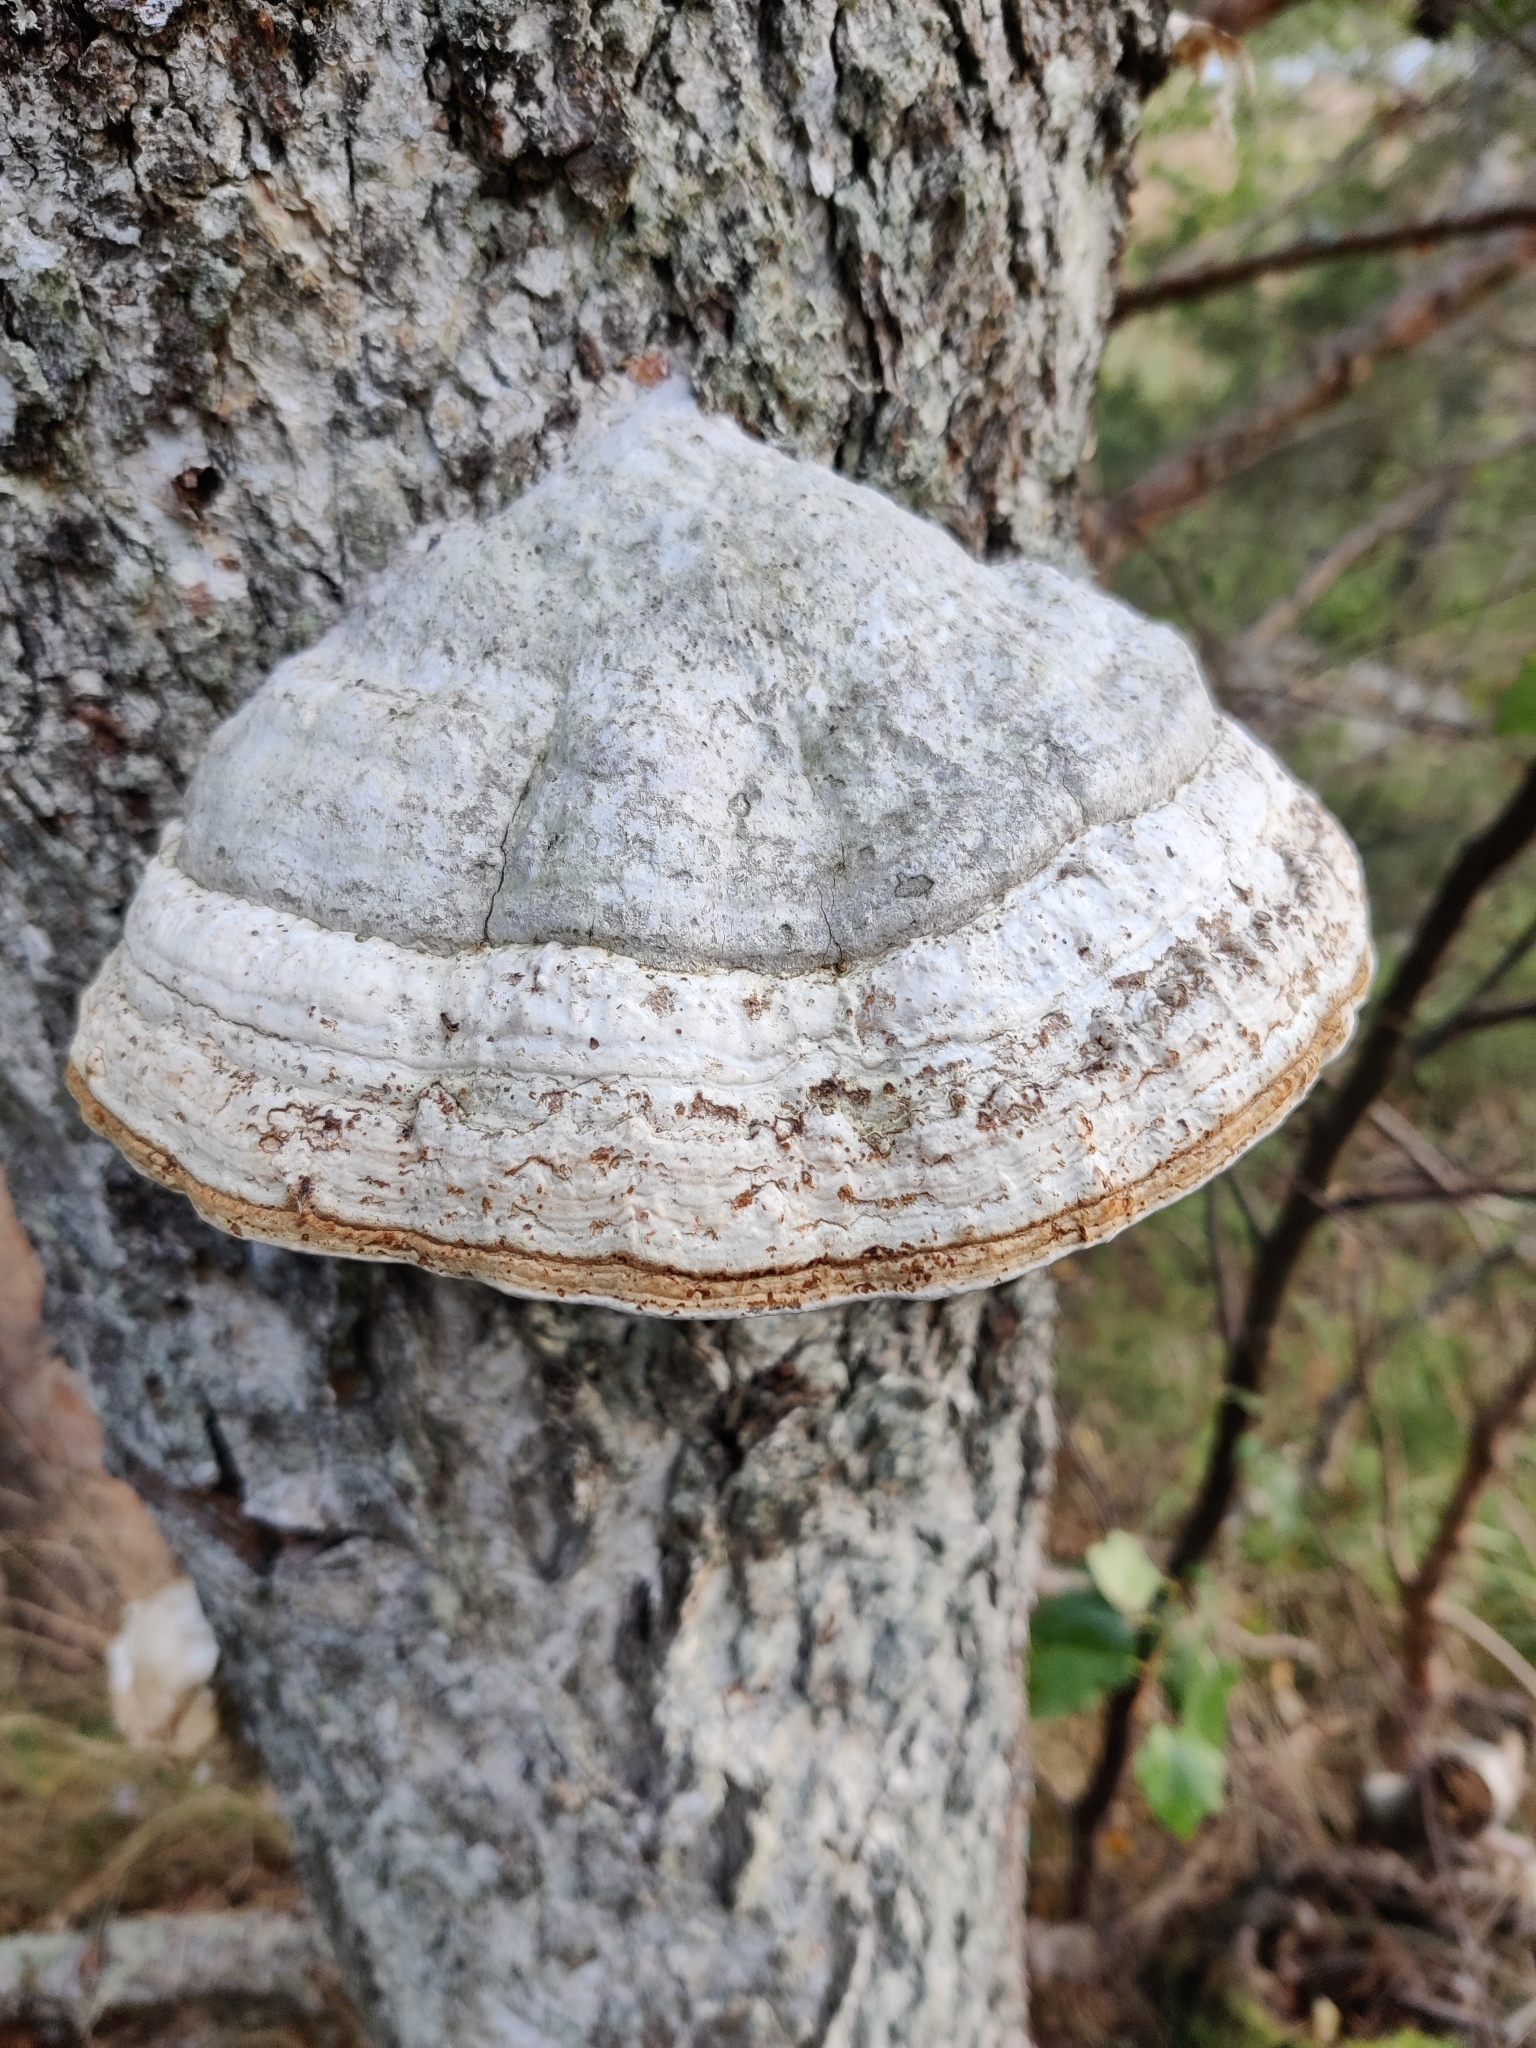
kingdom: Fungi
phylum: Basidiomycota
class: Agaricomycetes
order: Polyporales
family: Polyporaceae
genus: Fomes
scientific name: Fomes fomentarius
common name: Hoof fungus
